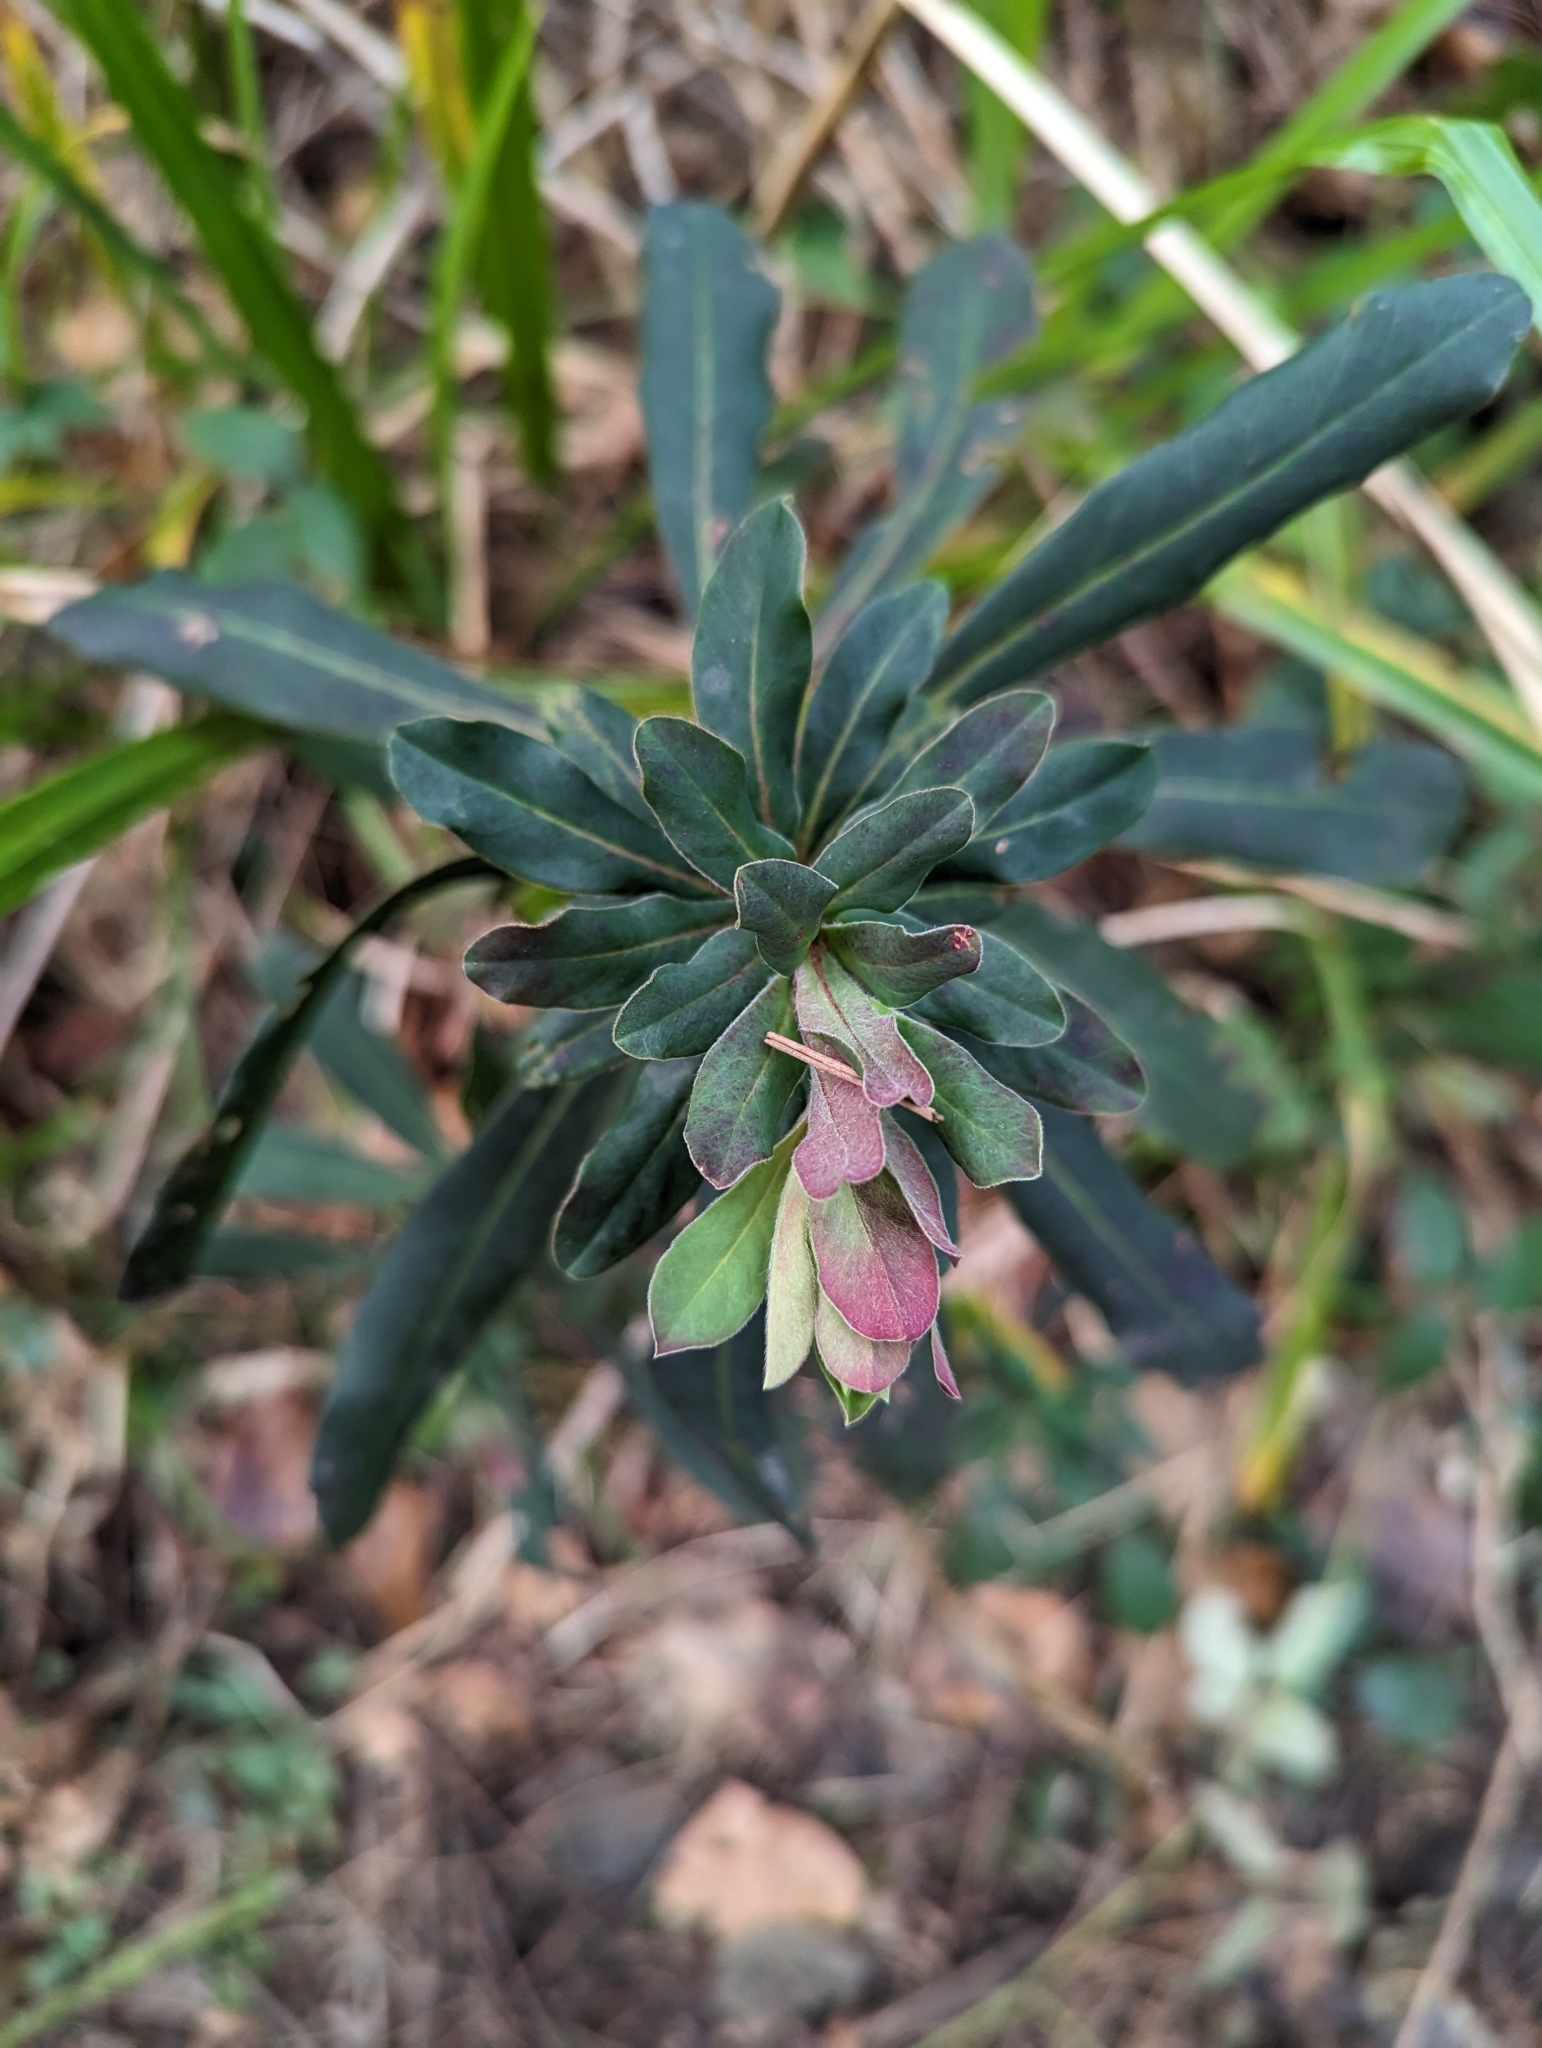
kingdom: Plantae
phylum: Tracheophyta
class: Magnoliopsida
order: Malpighiales
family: Euphorbiaceae
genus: Euphorbia
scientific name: Euphorbia amygdaloides
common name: Wood spurge
